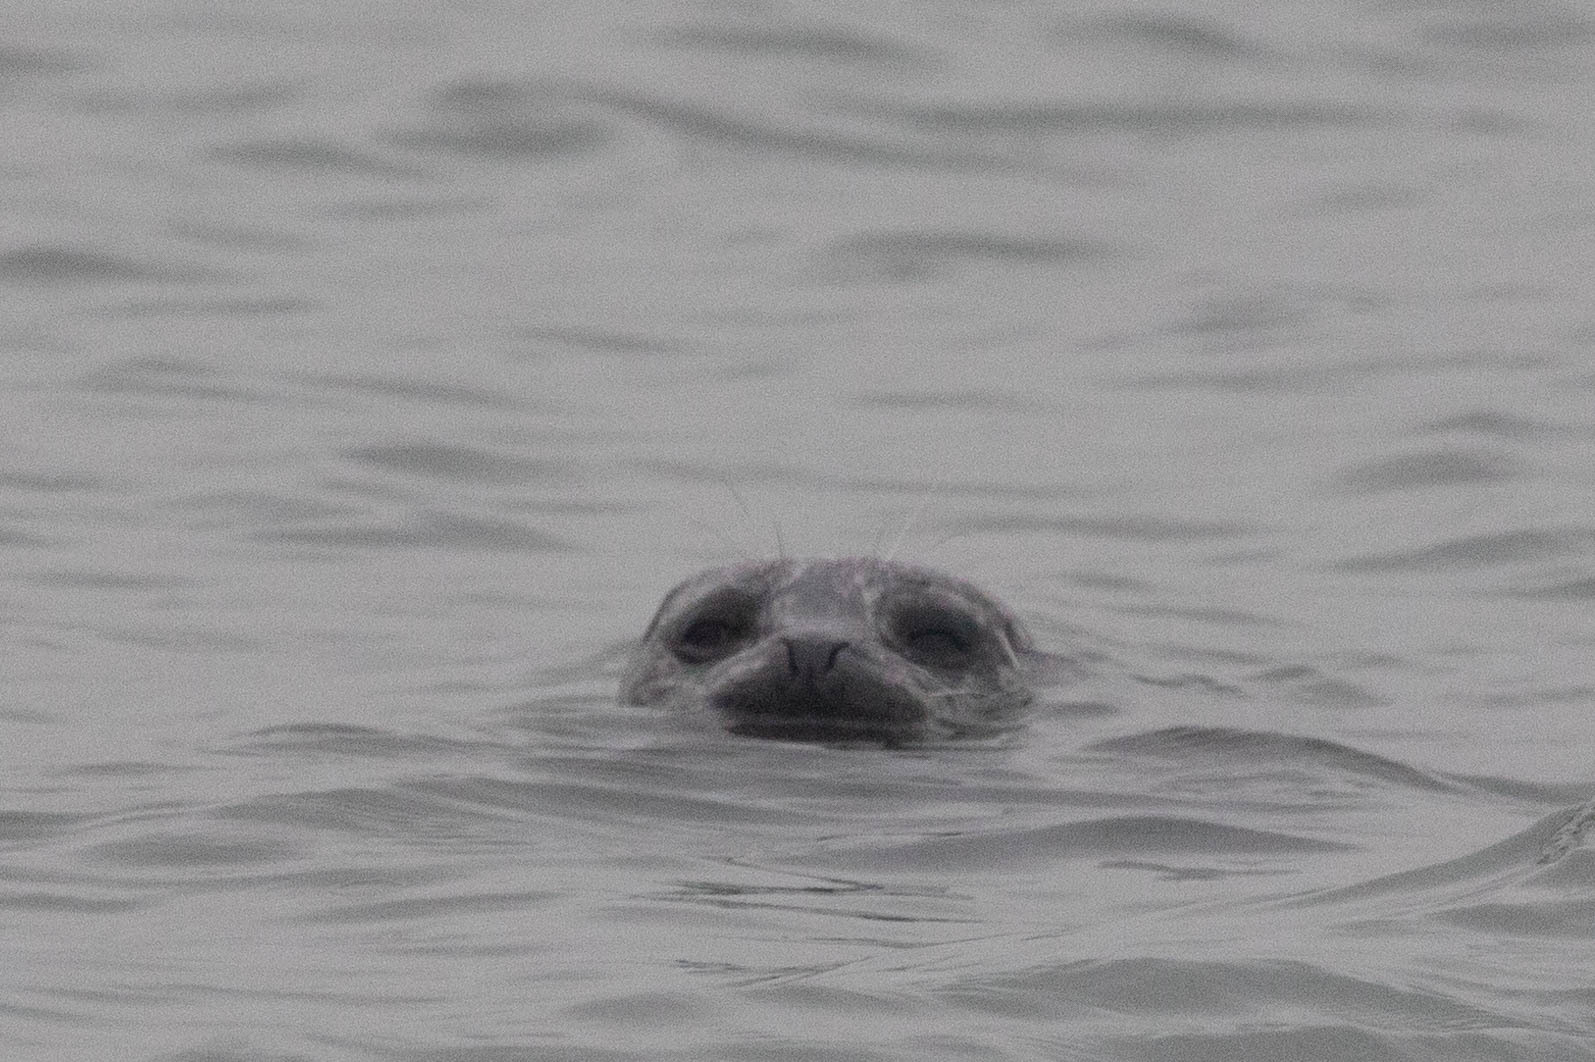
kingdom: Animalia
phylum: Chordata
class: Mammalia
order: Carnivora
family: Phocidae
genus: Phoca
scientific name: Phoca vitulina
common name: Harbor seal
